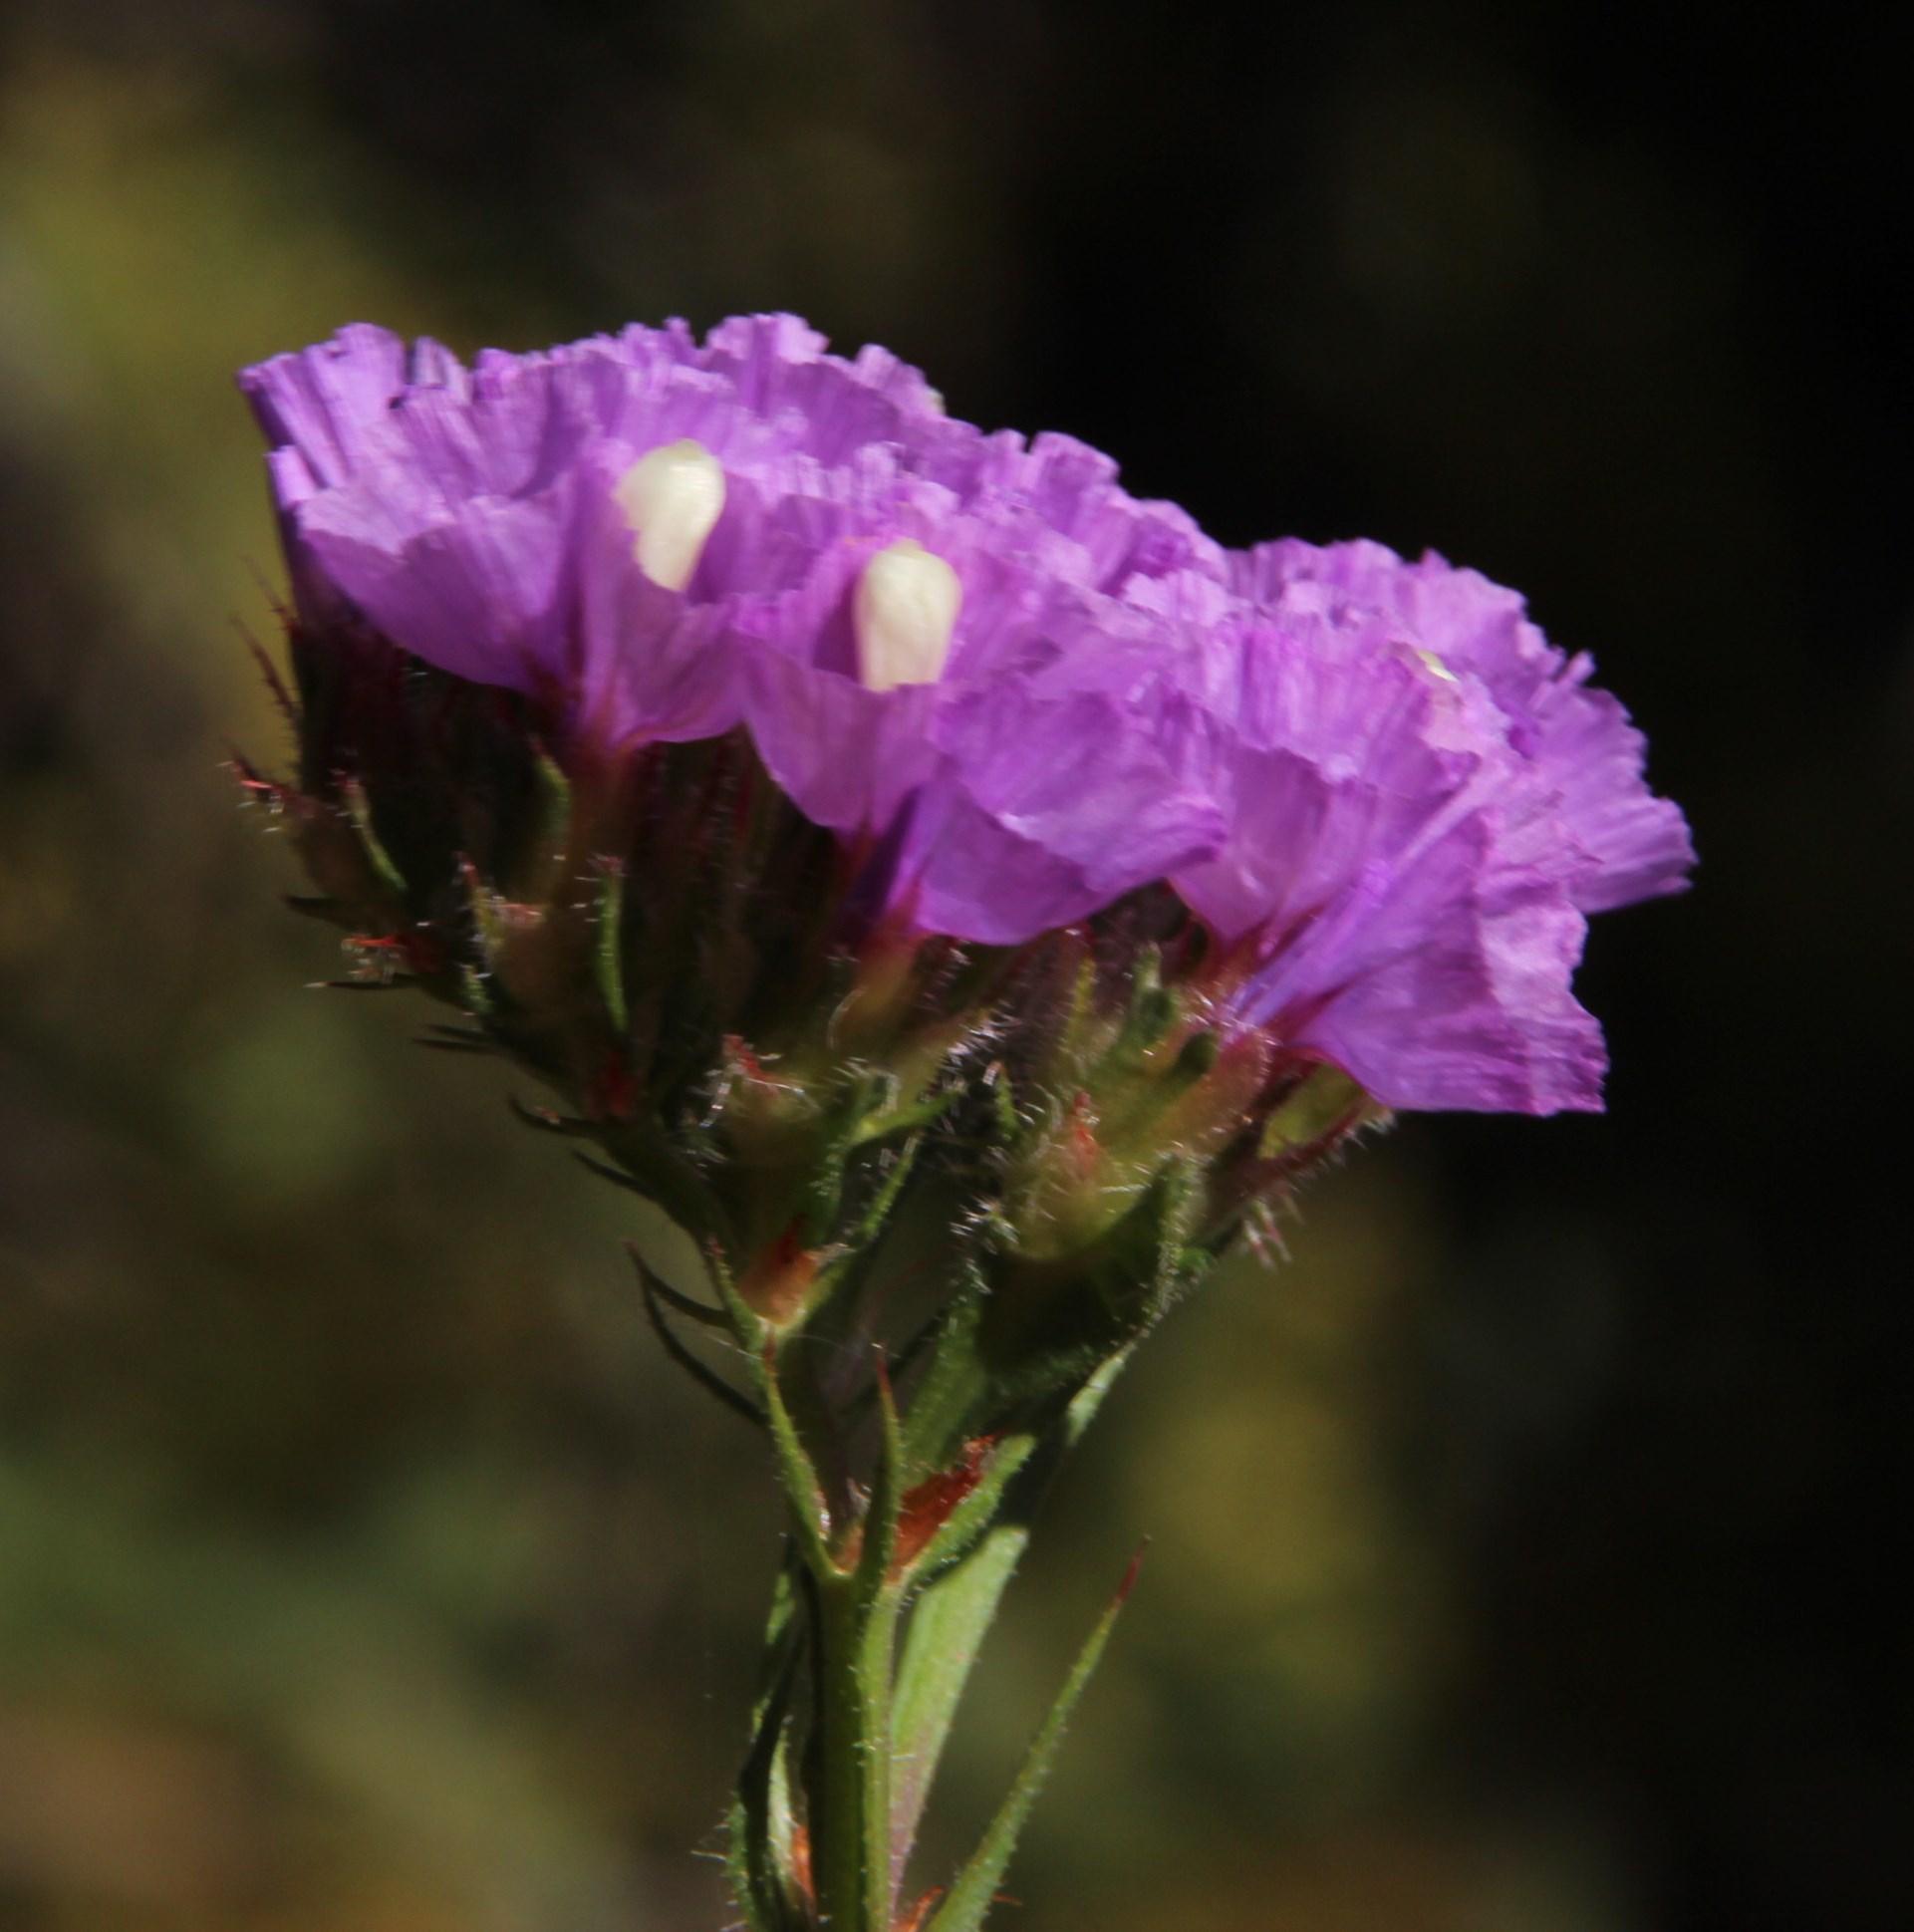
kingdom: Plantae
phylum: Tracheophyta
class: Magnoliopsida
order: Caryophyllales
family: Plumbaginaceae
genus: Limonium
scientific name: Limonium sinuatum
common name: Statice
